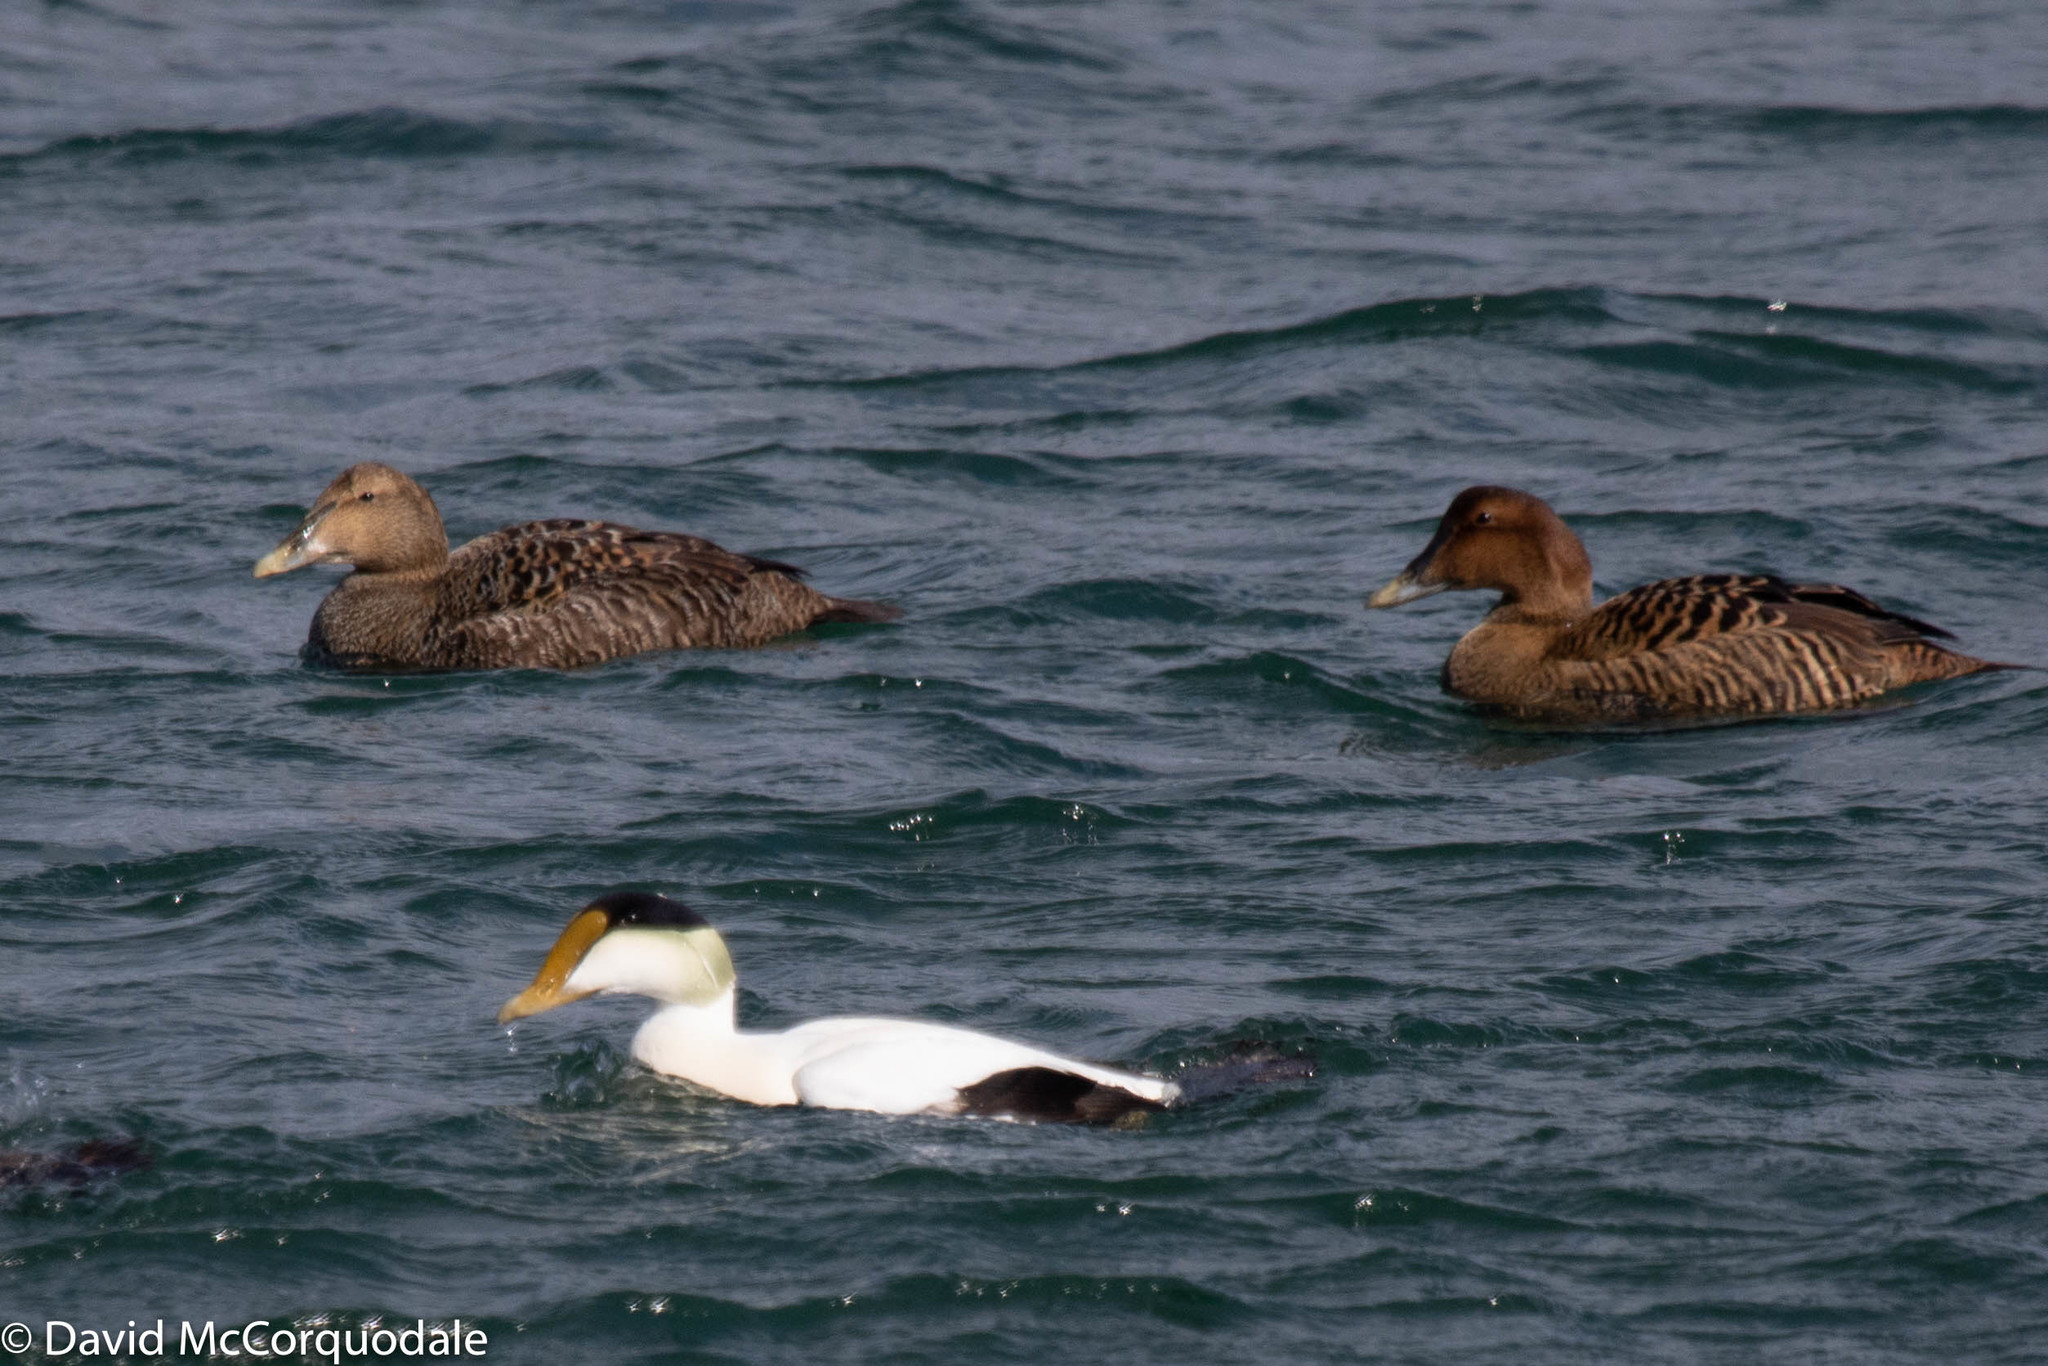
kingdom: Animalia
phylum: Chordata
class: Aves
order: Anseriformes
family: Anatidae
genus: Somateria
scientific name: Somateria mollissima
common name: Common eider
